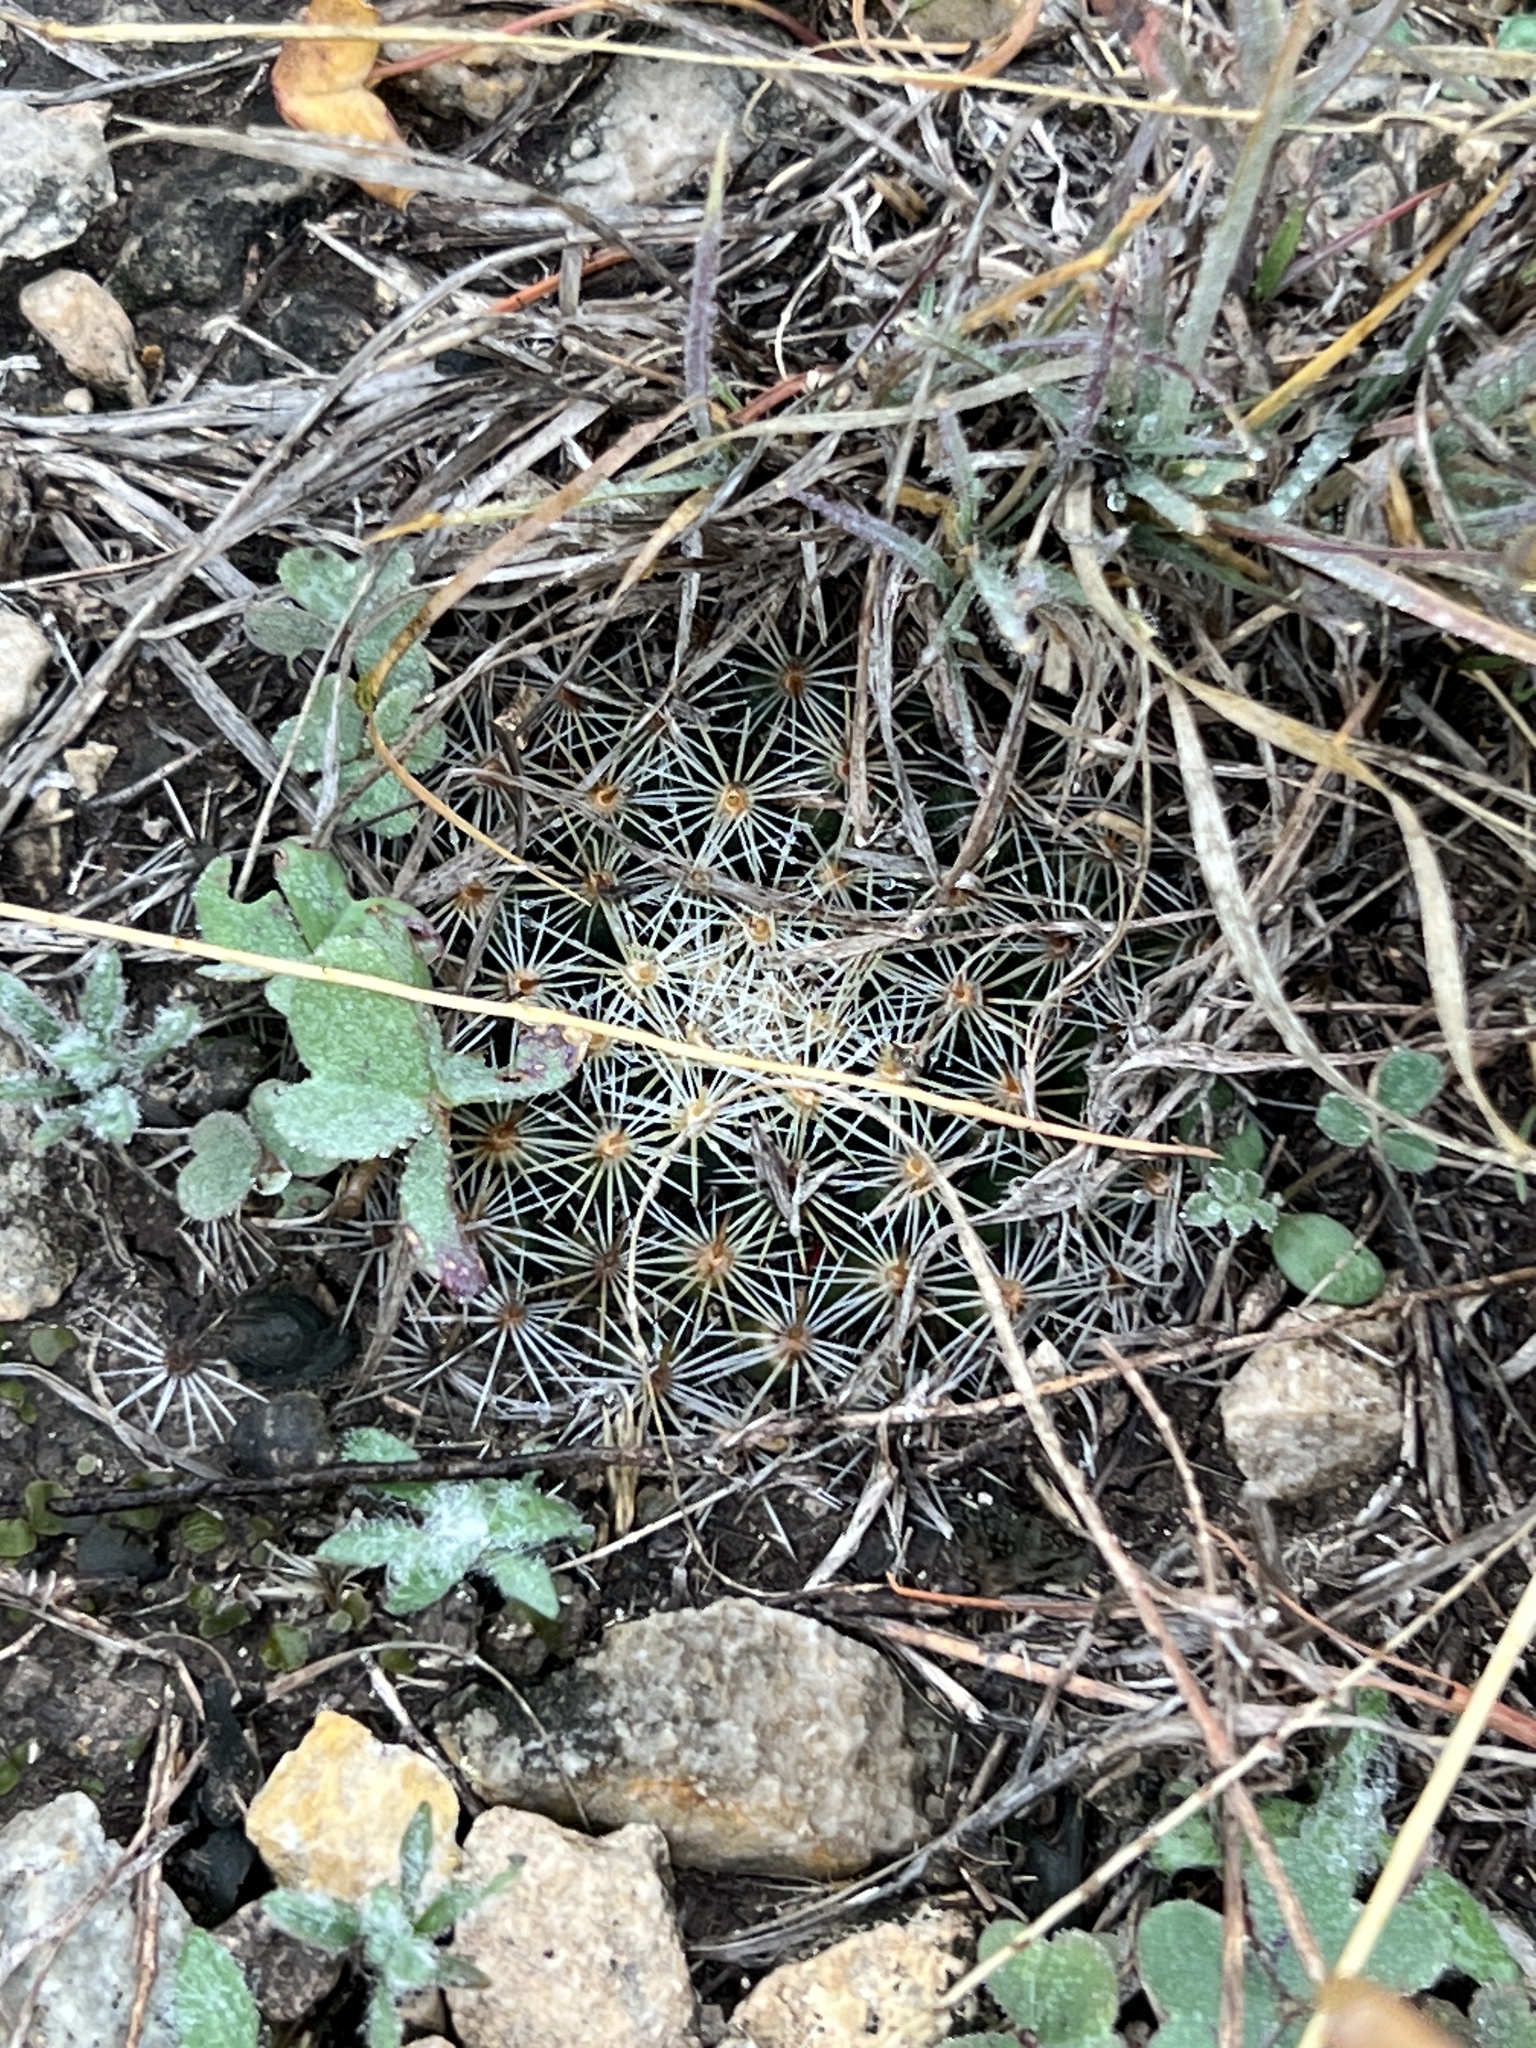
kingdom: Plantae
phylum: Tracheophyta
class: Magnoliopsida
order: Caryophyllales
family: Cactaceae
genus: Mammillaria
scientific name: Mammillaria heyderi
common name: Little nipple cactus
